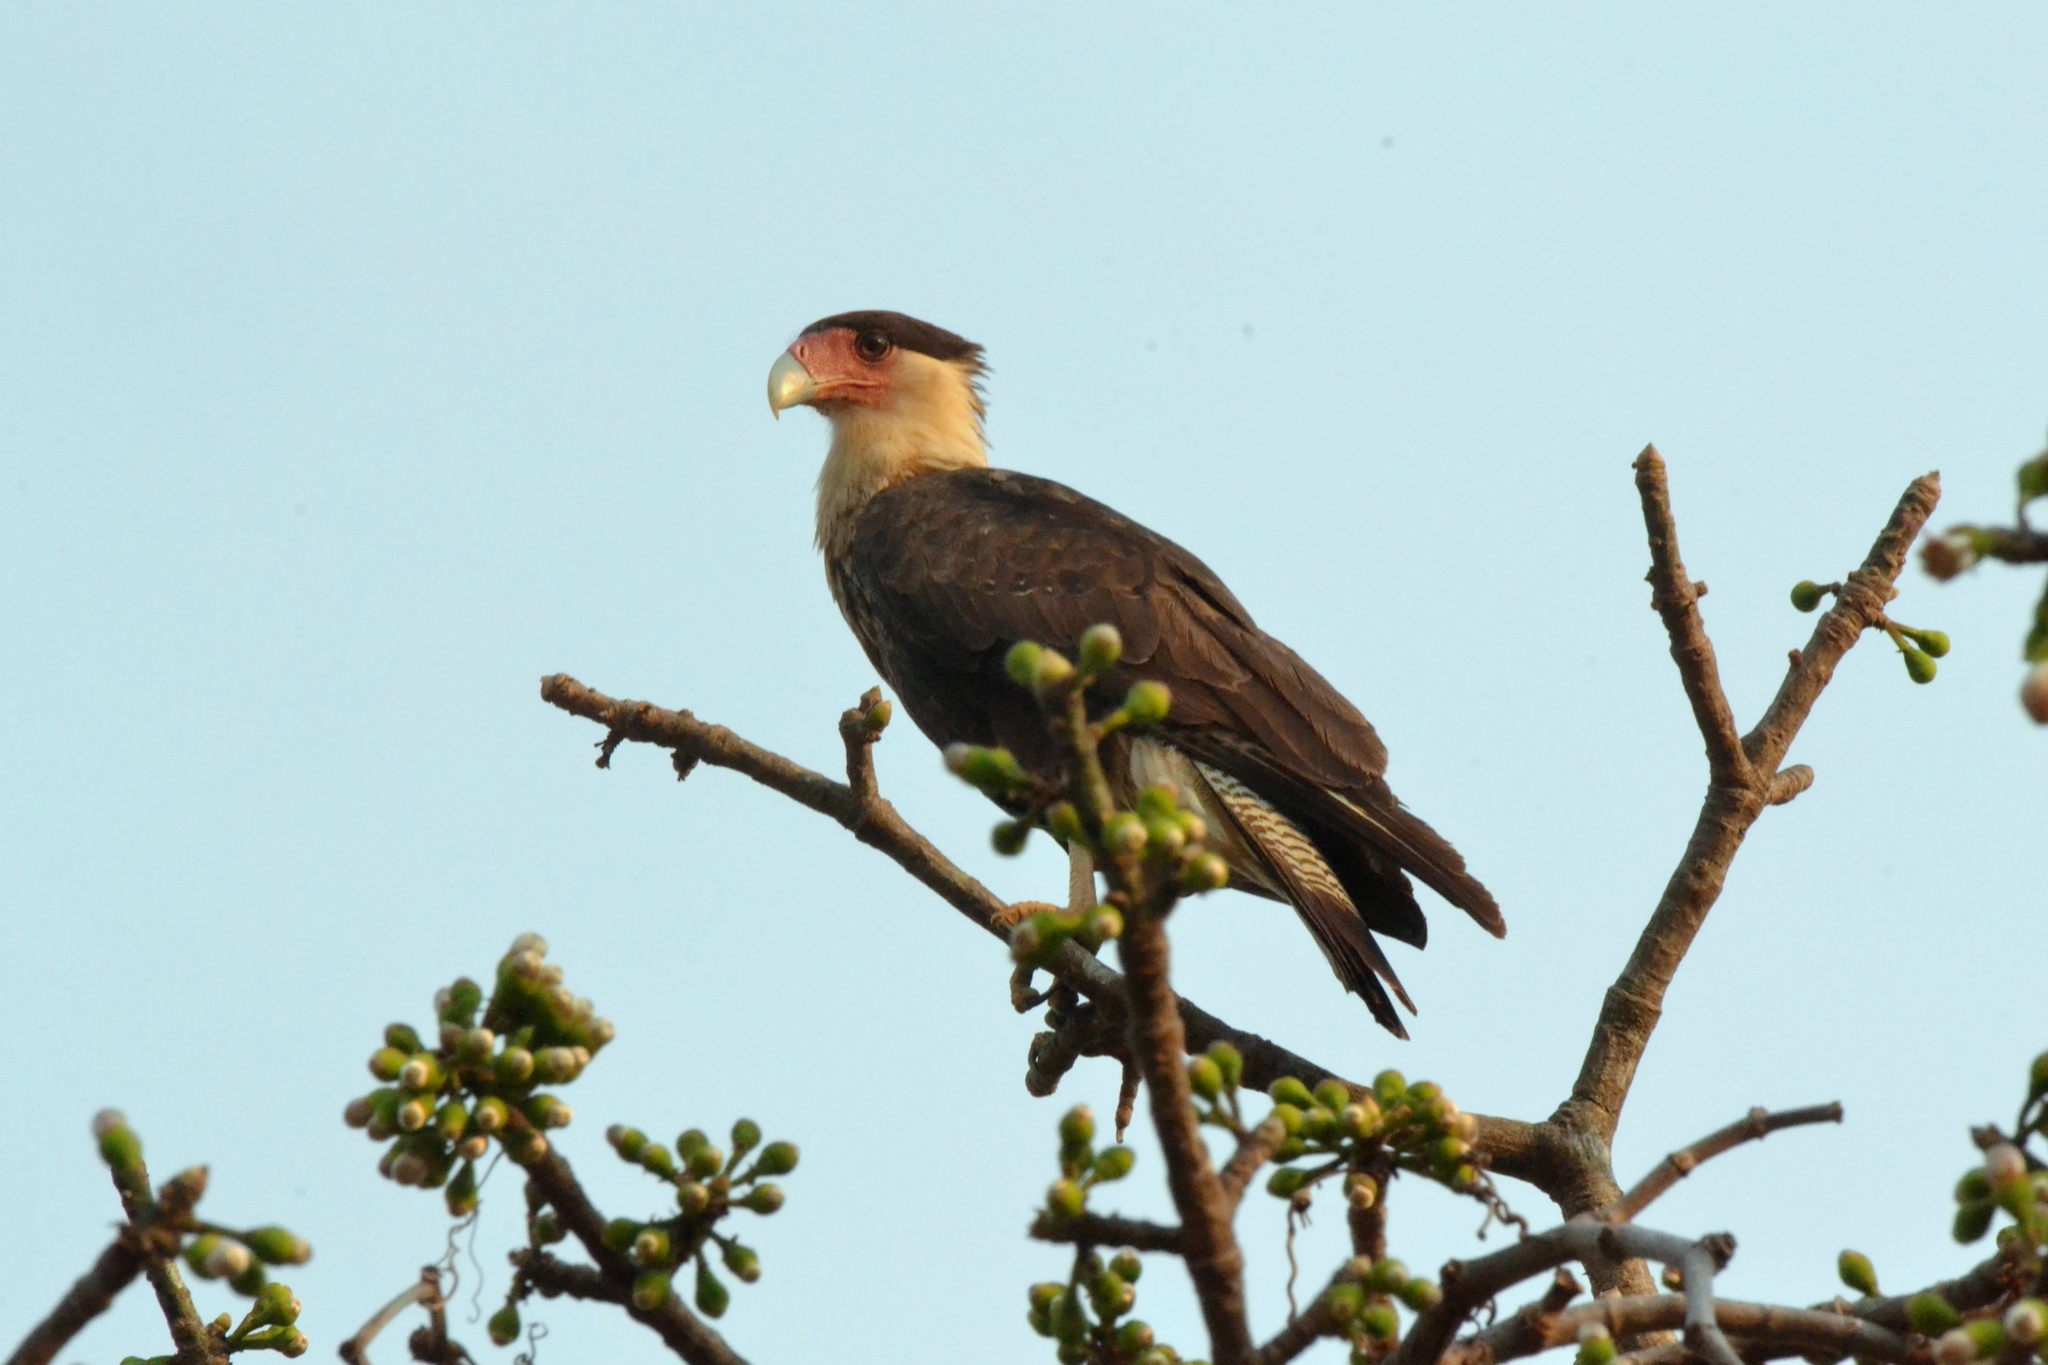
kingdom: Animalia
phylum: Chordata
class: Aves
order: Falconiformes
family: Falconidae
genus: Caracara
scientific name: Caracara plancus
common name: Southern caracara
